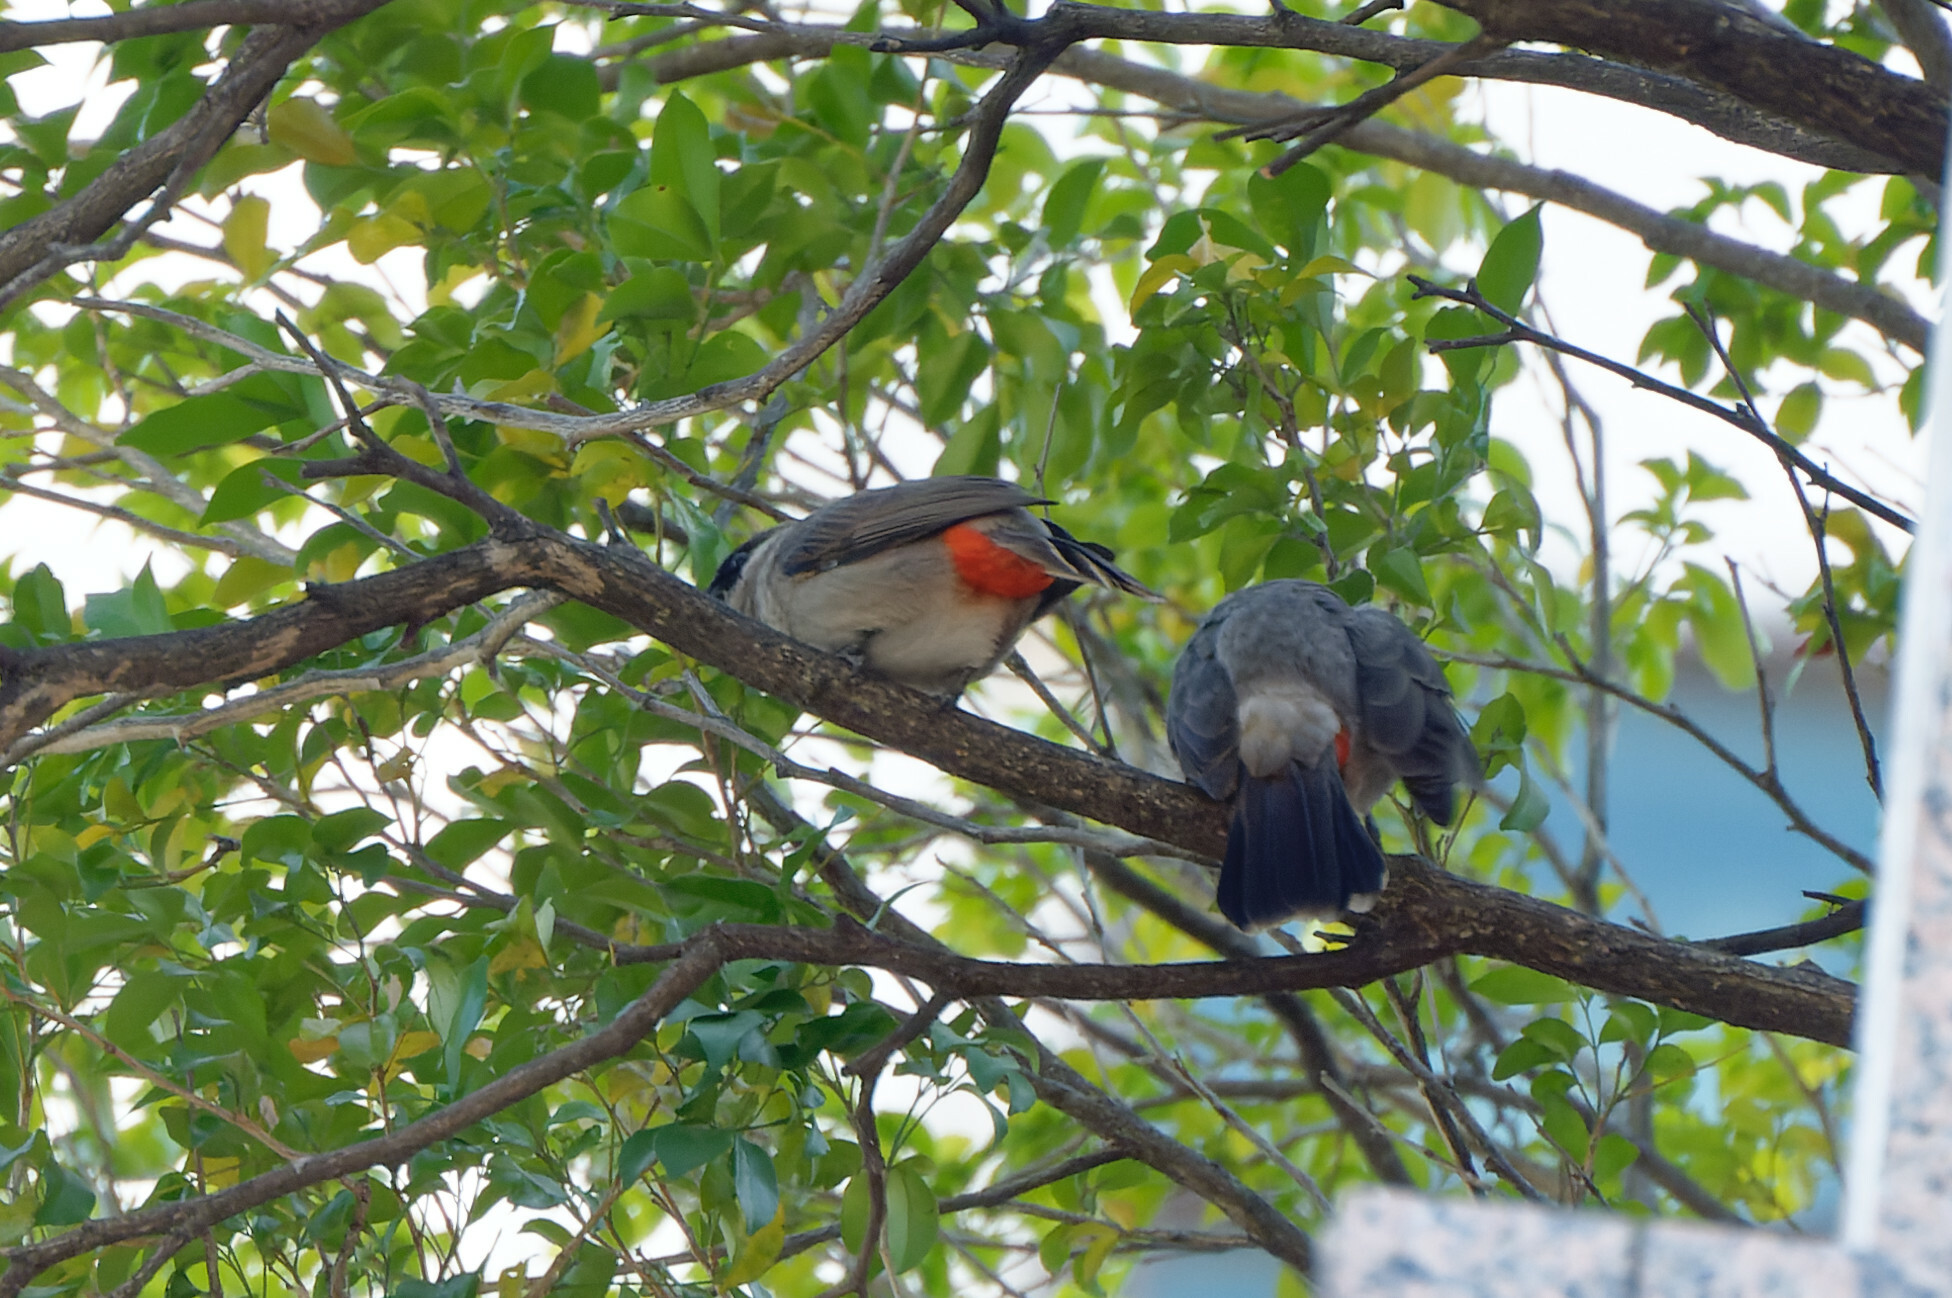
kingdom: Animalia
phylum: Chordata
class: Aves
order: Passeriformes
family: Pycnonotidae
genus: Pycnonotus
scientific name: Pycnonotus aurigaster
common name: Sooty-headed bulbul
